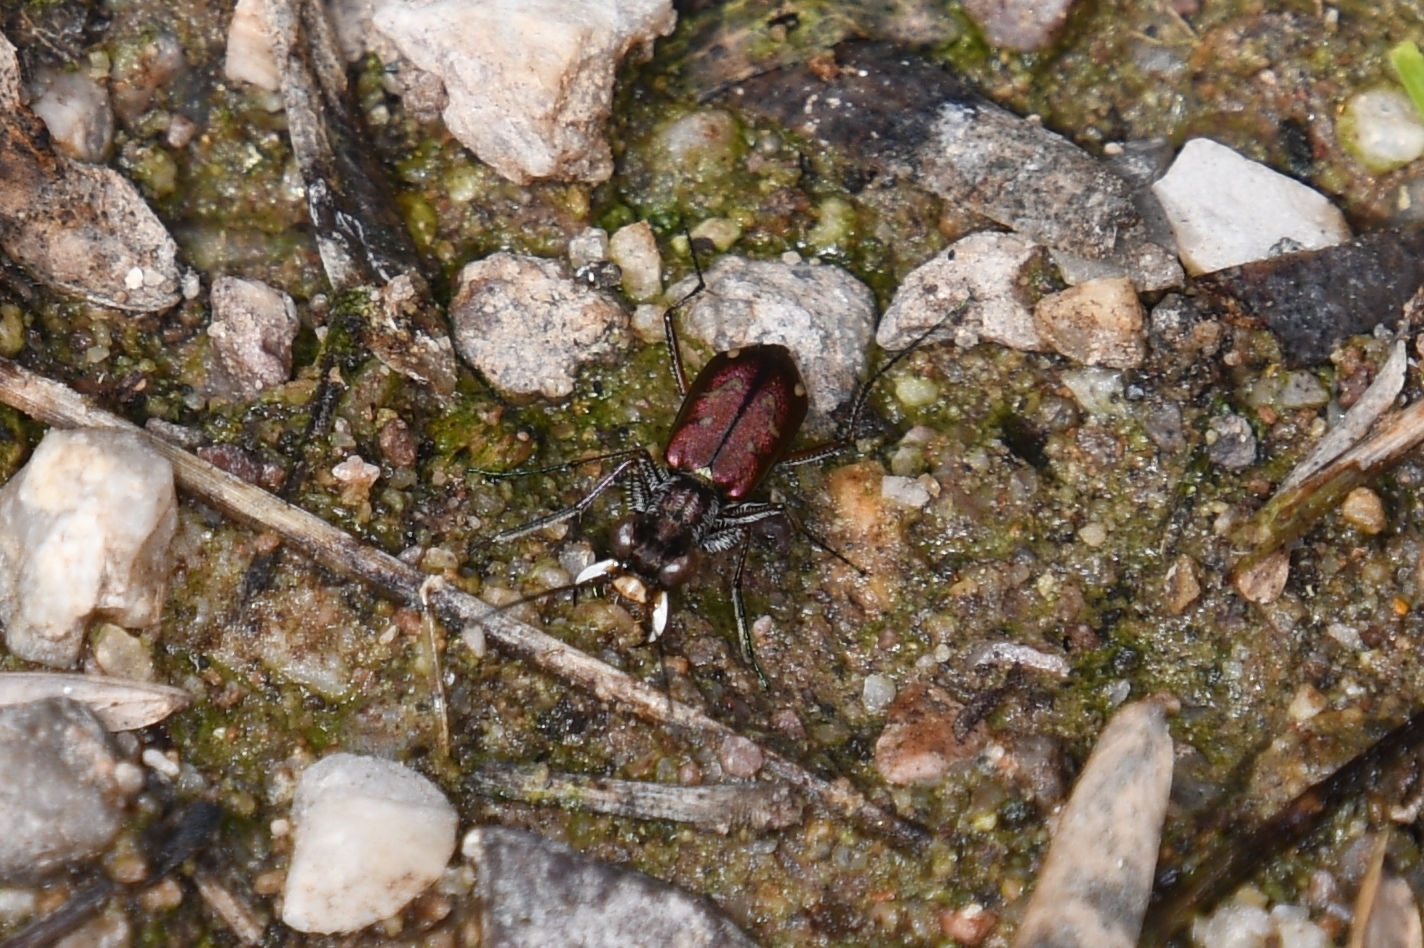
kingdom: Animalia
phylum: Arthropoda
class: Insecta
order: Coleoptera
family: Carabidae
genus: Brasiella
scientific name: Brasiella wickhami
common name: Sonoran tiger beetle
